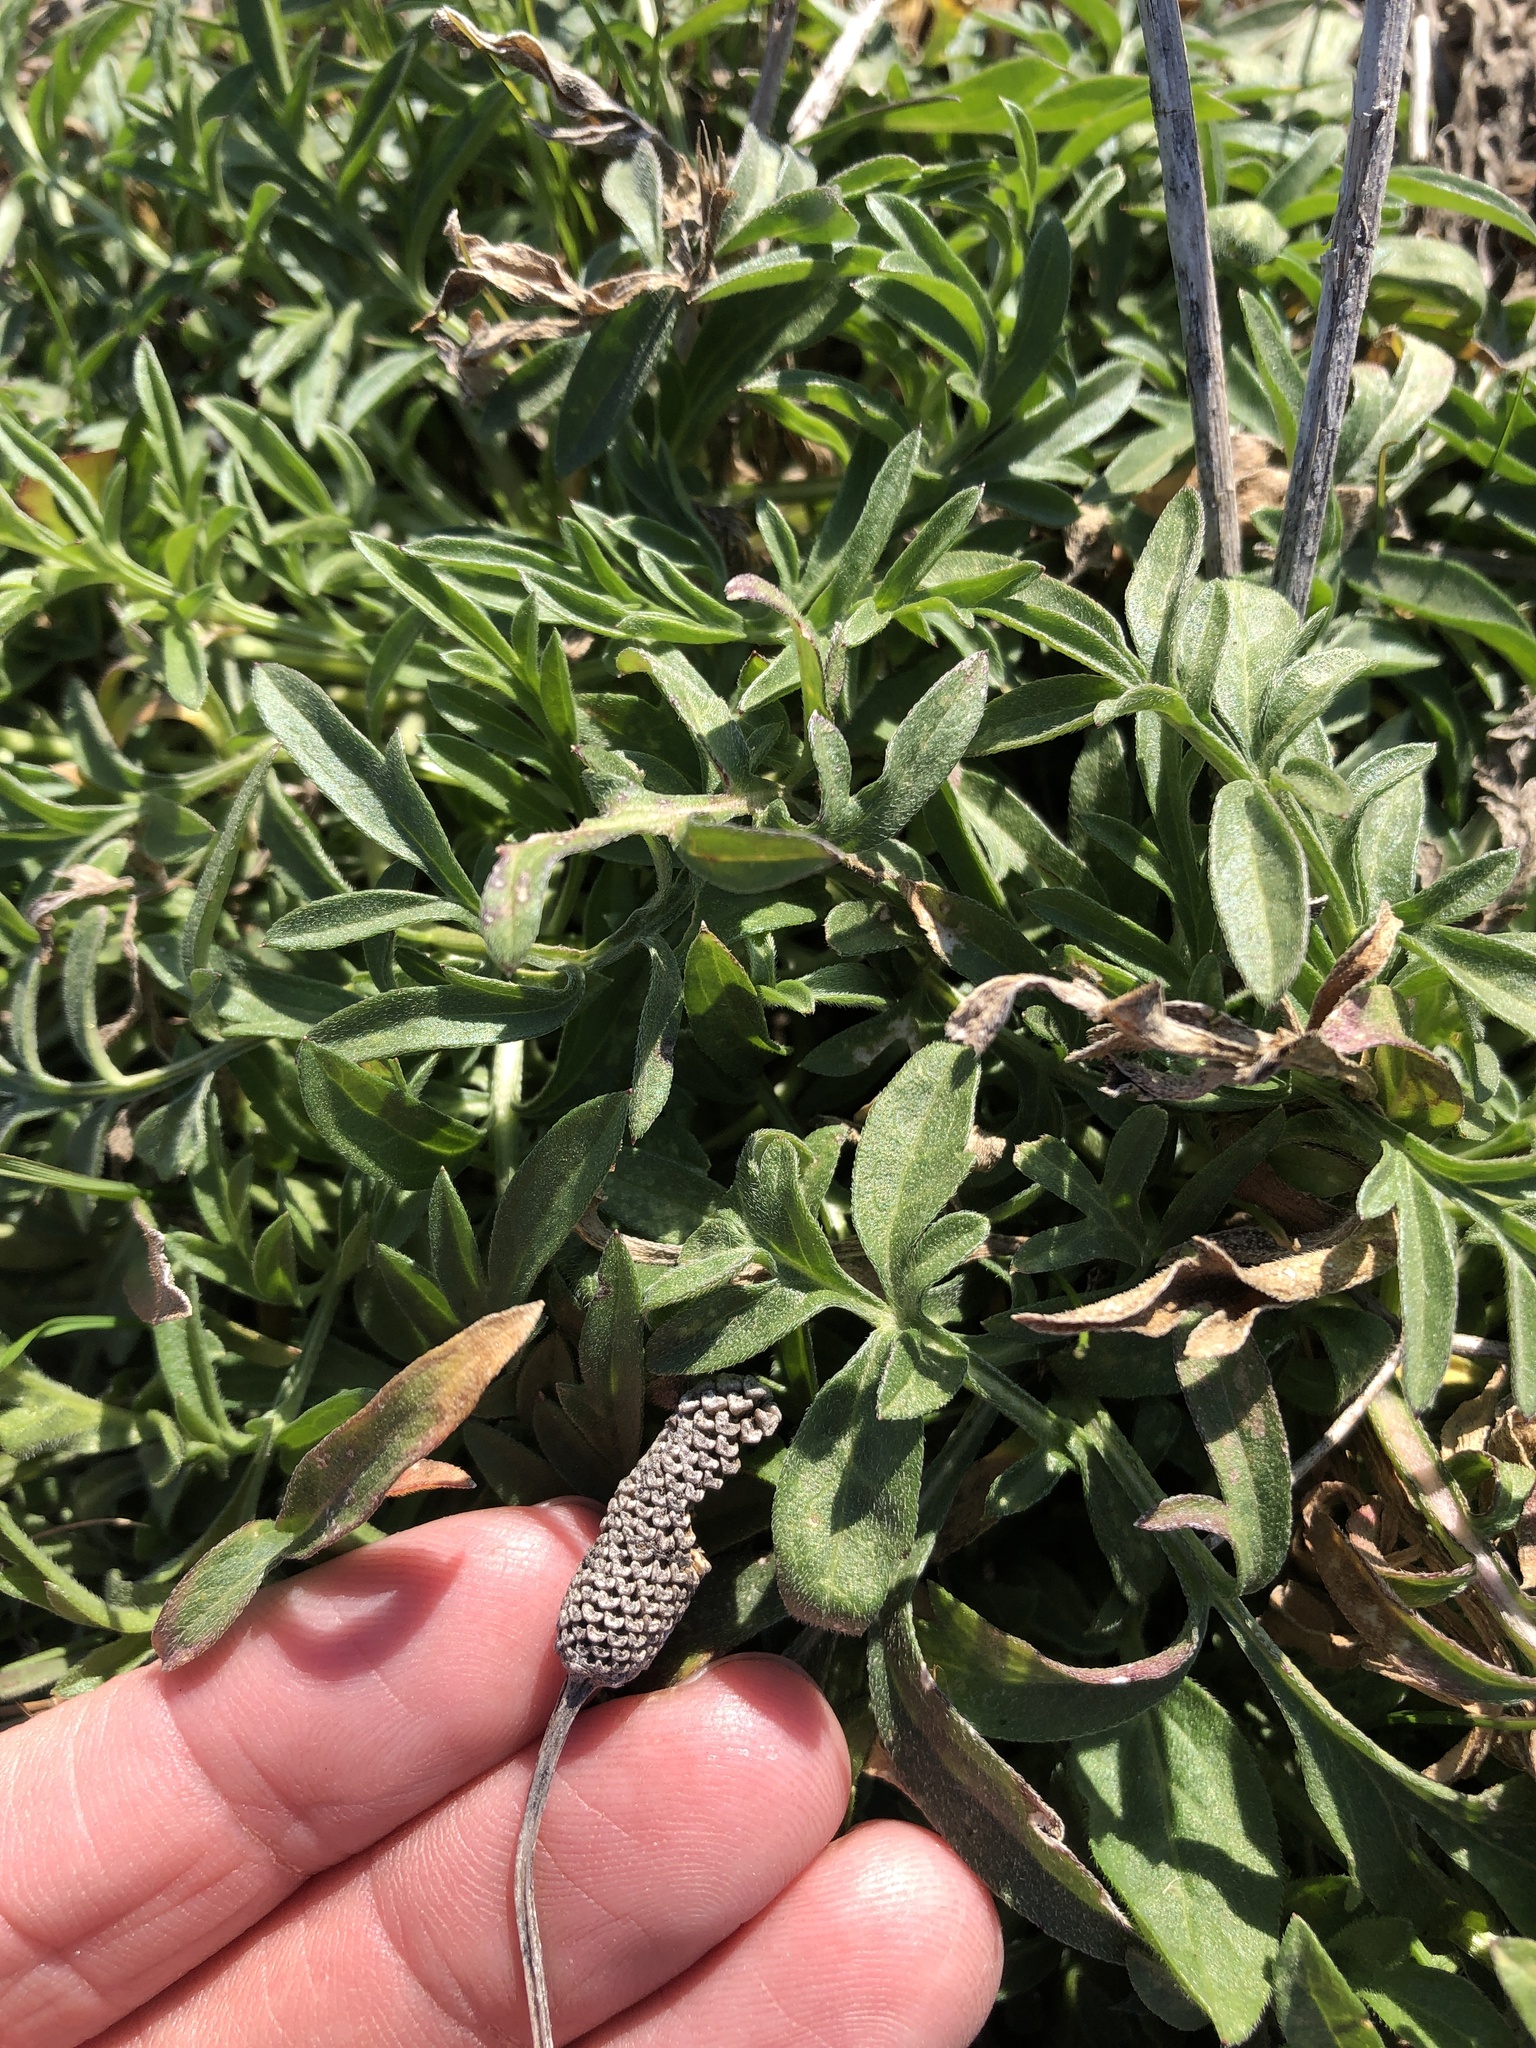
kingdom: Plantae
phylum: Tracheophyta
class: Magnoliopsida
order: Asterales
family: Asteraceae
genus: Ratibida
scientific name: Ratibida columnifera
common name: Prairie coneflower
